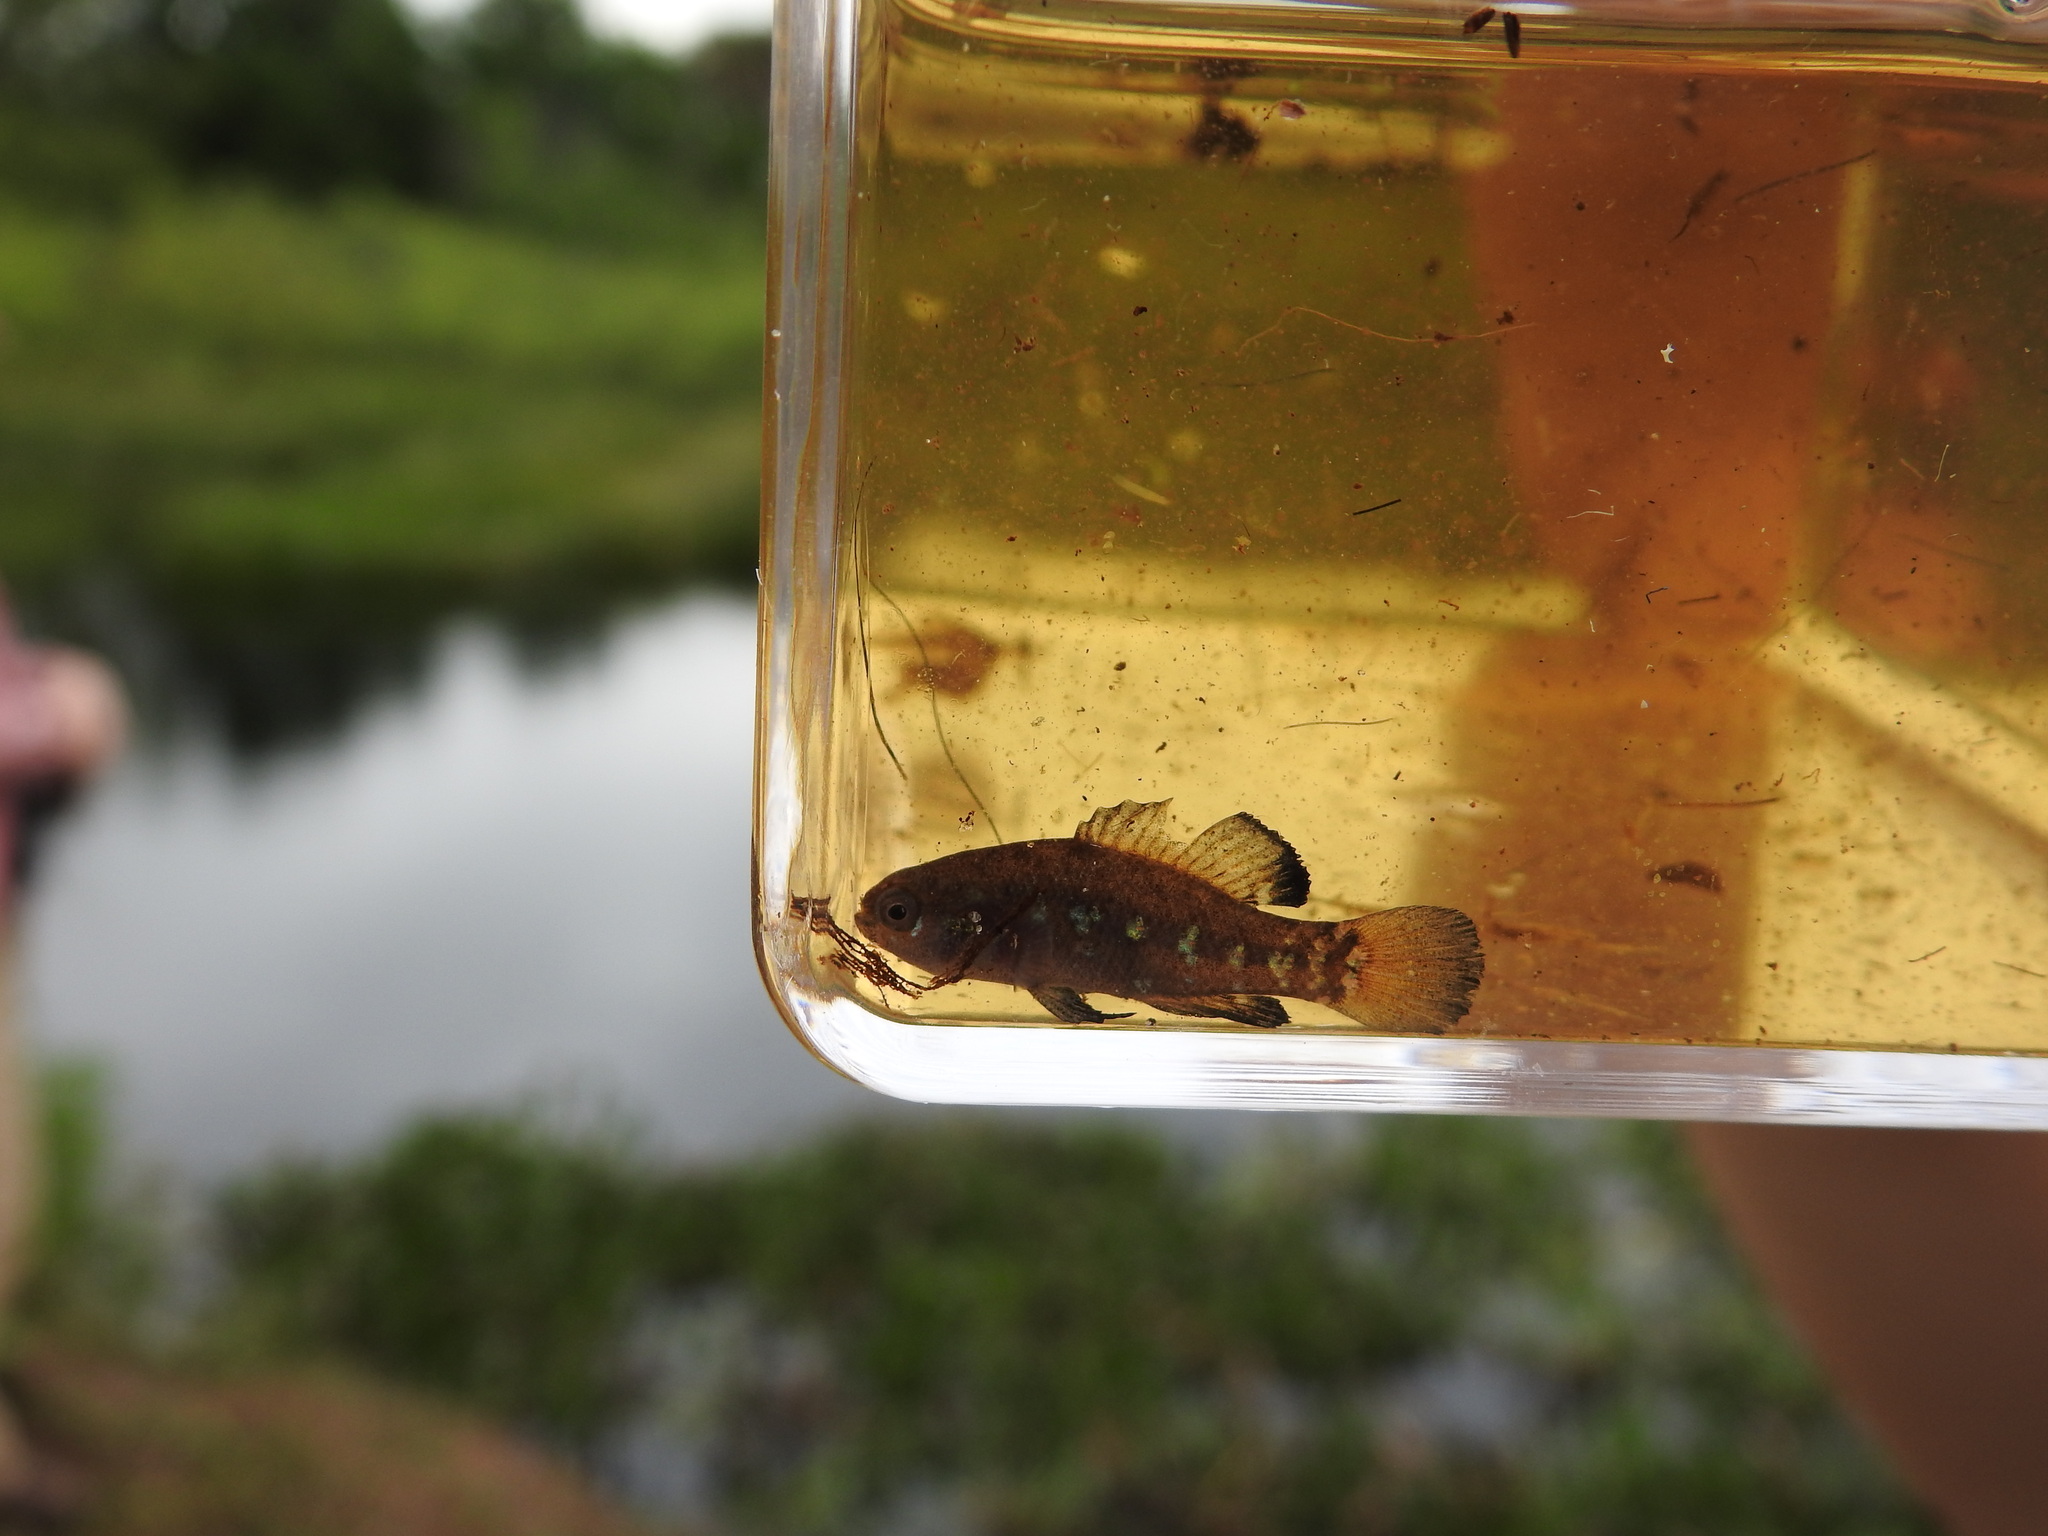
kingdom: Animalia
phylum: Chordata
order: Perciformes
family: Elassomatidae
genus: Elassoma
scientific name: Elassoma okefenokee
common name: Okefenokee pygmy sunfish
